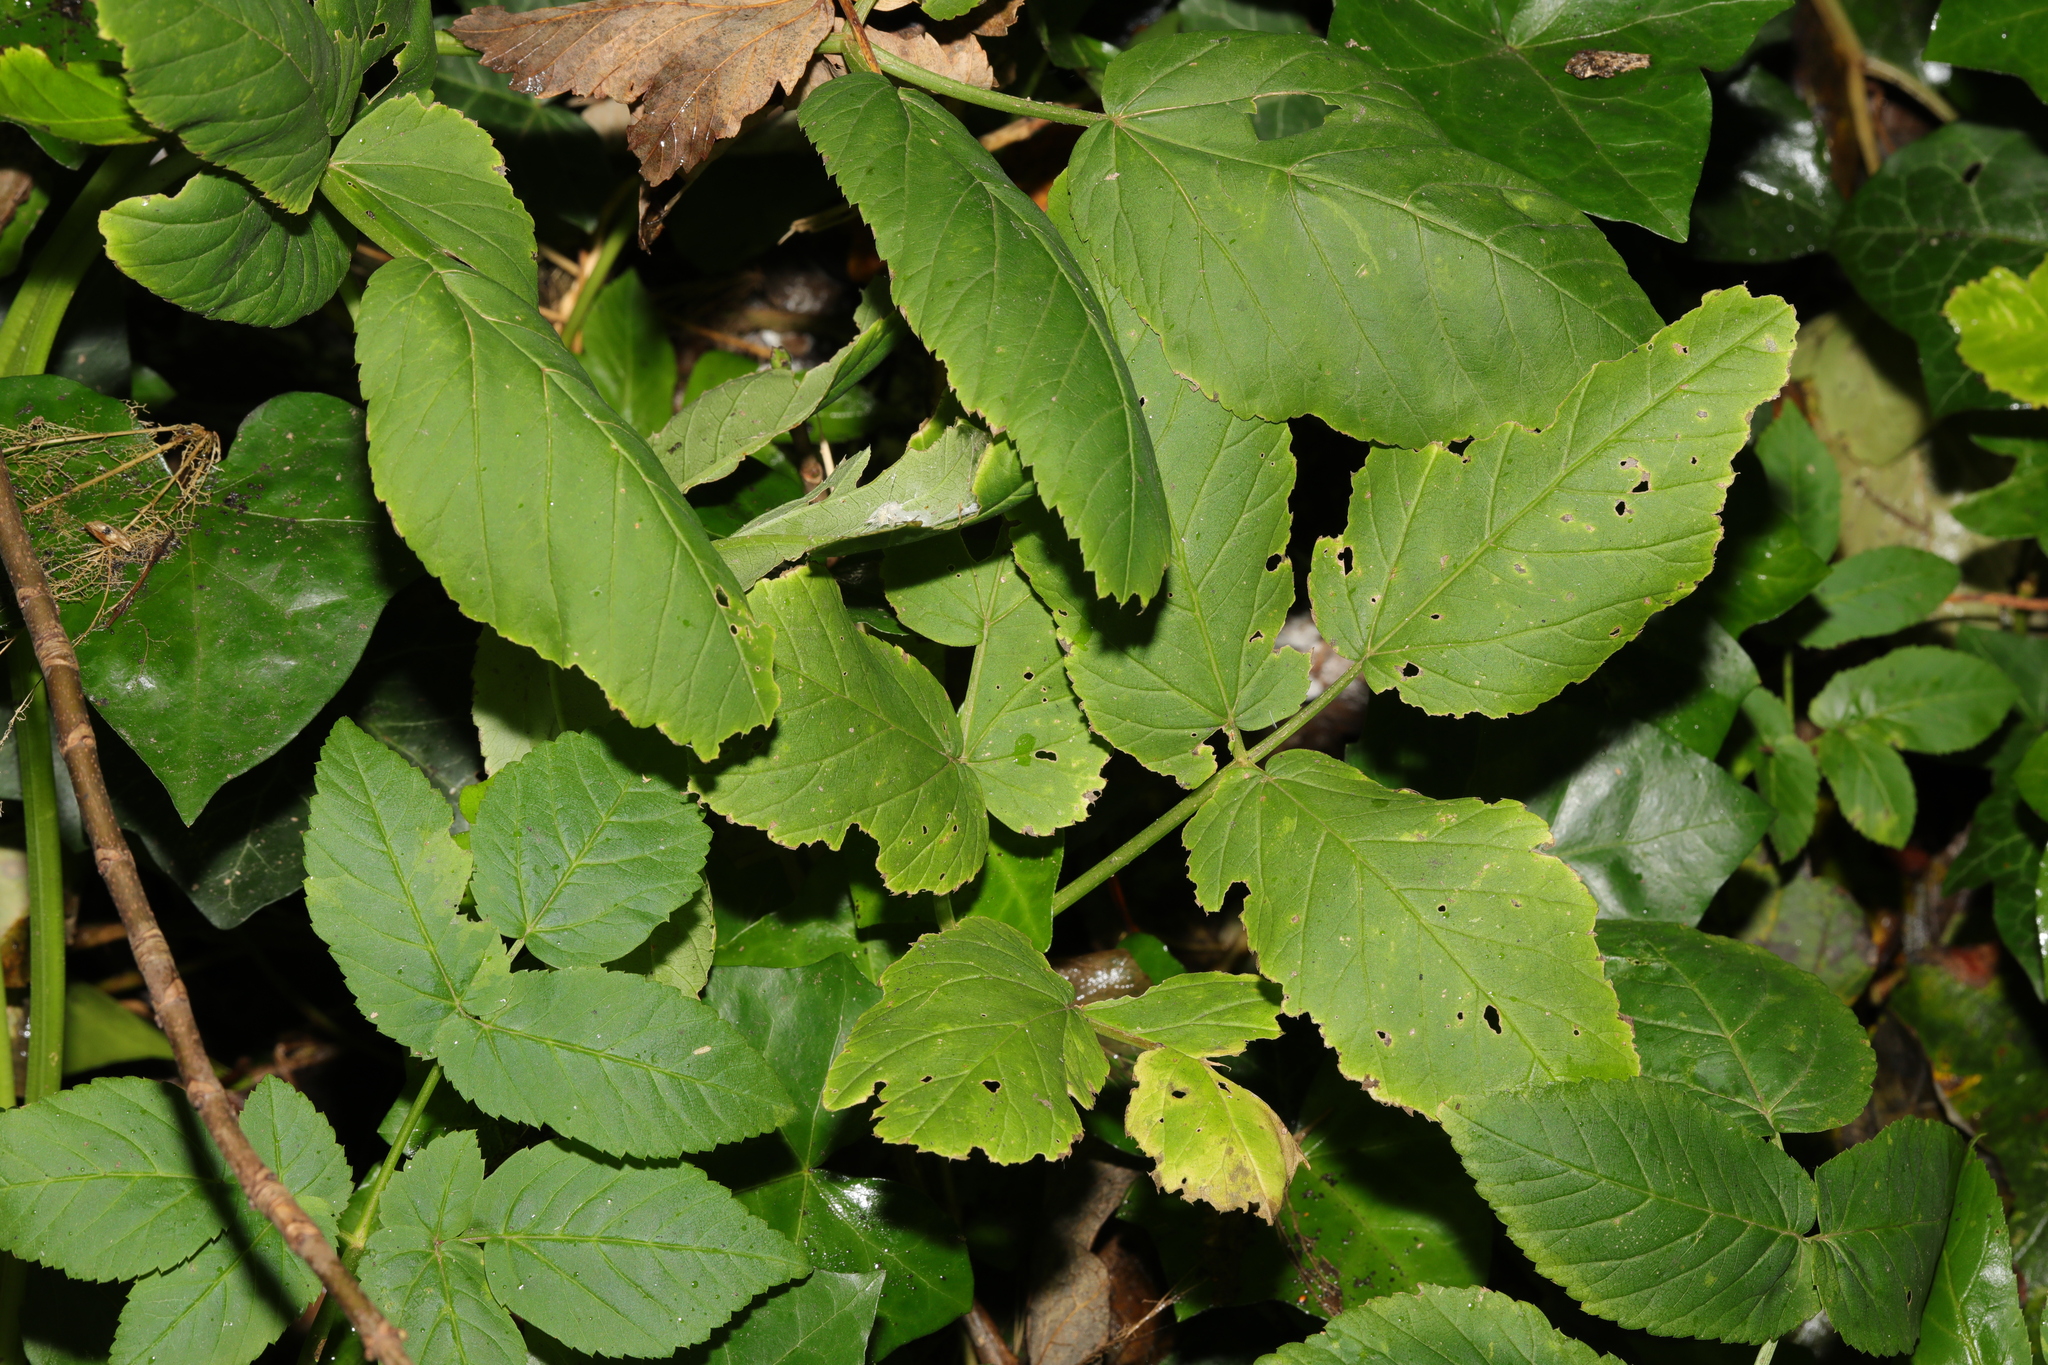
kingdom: Plantae
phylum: Tracheophyta
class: Magnoliopsida
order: Apiales
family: Apiaceae
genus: Aegopodium
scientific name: Aegopodium podagraria
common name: Ground-elder
